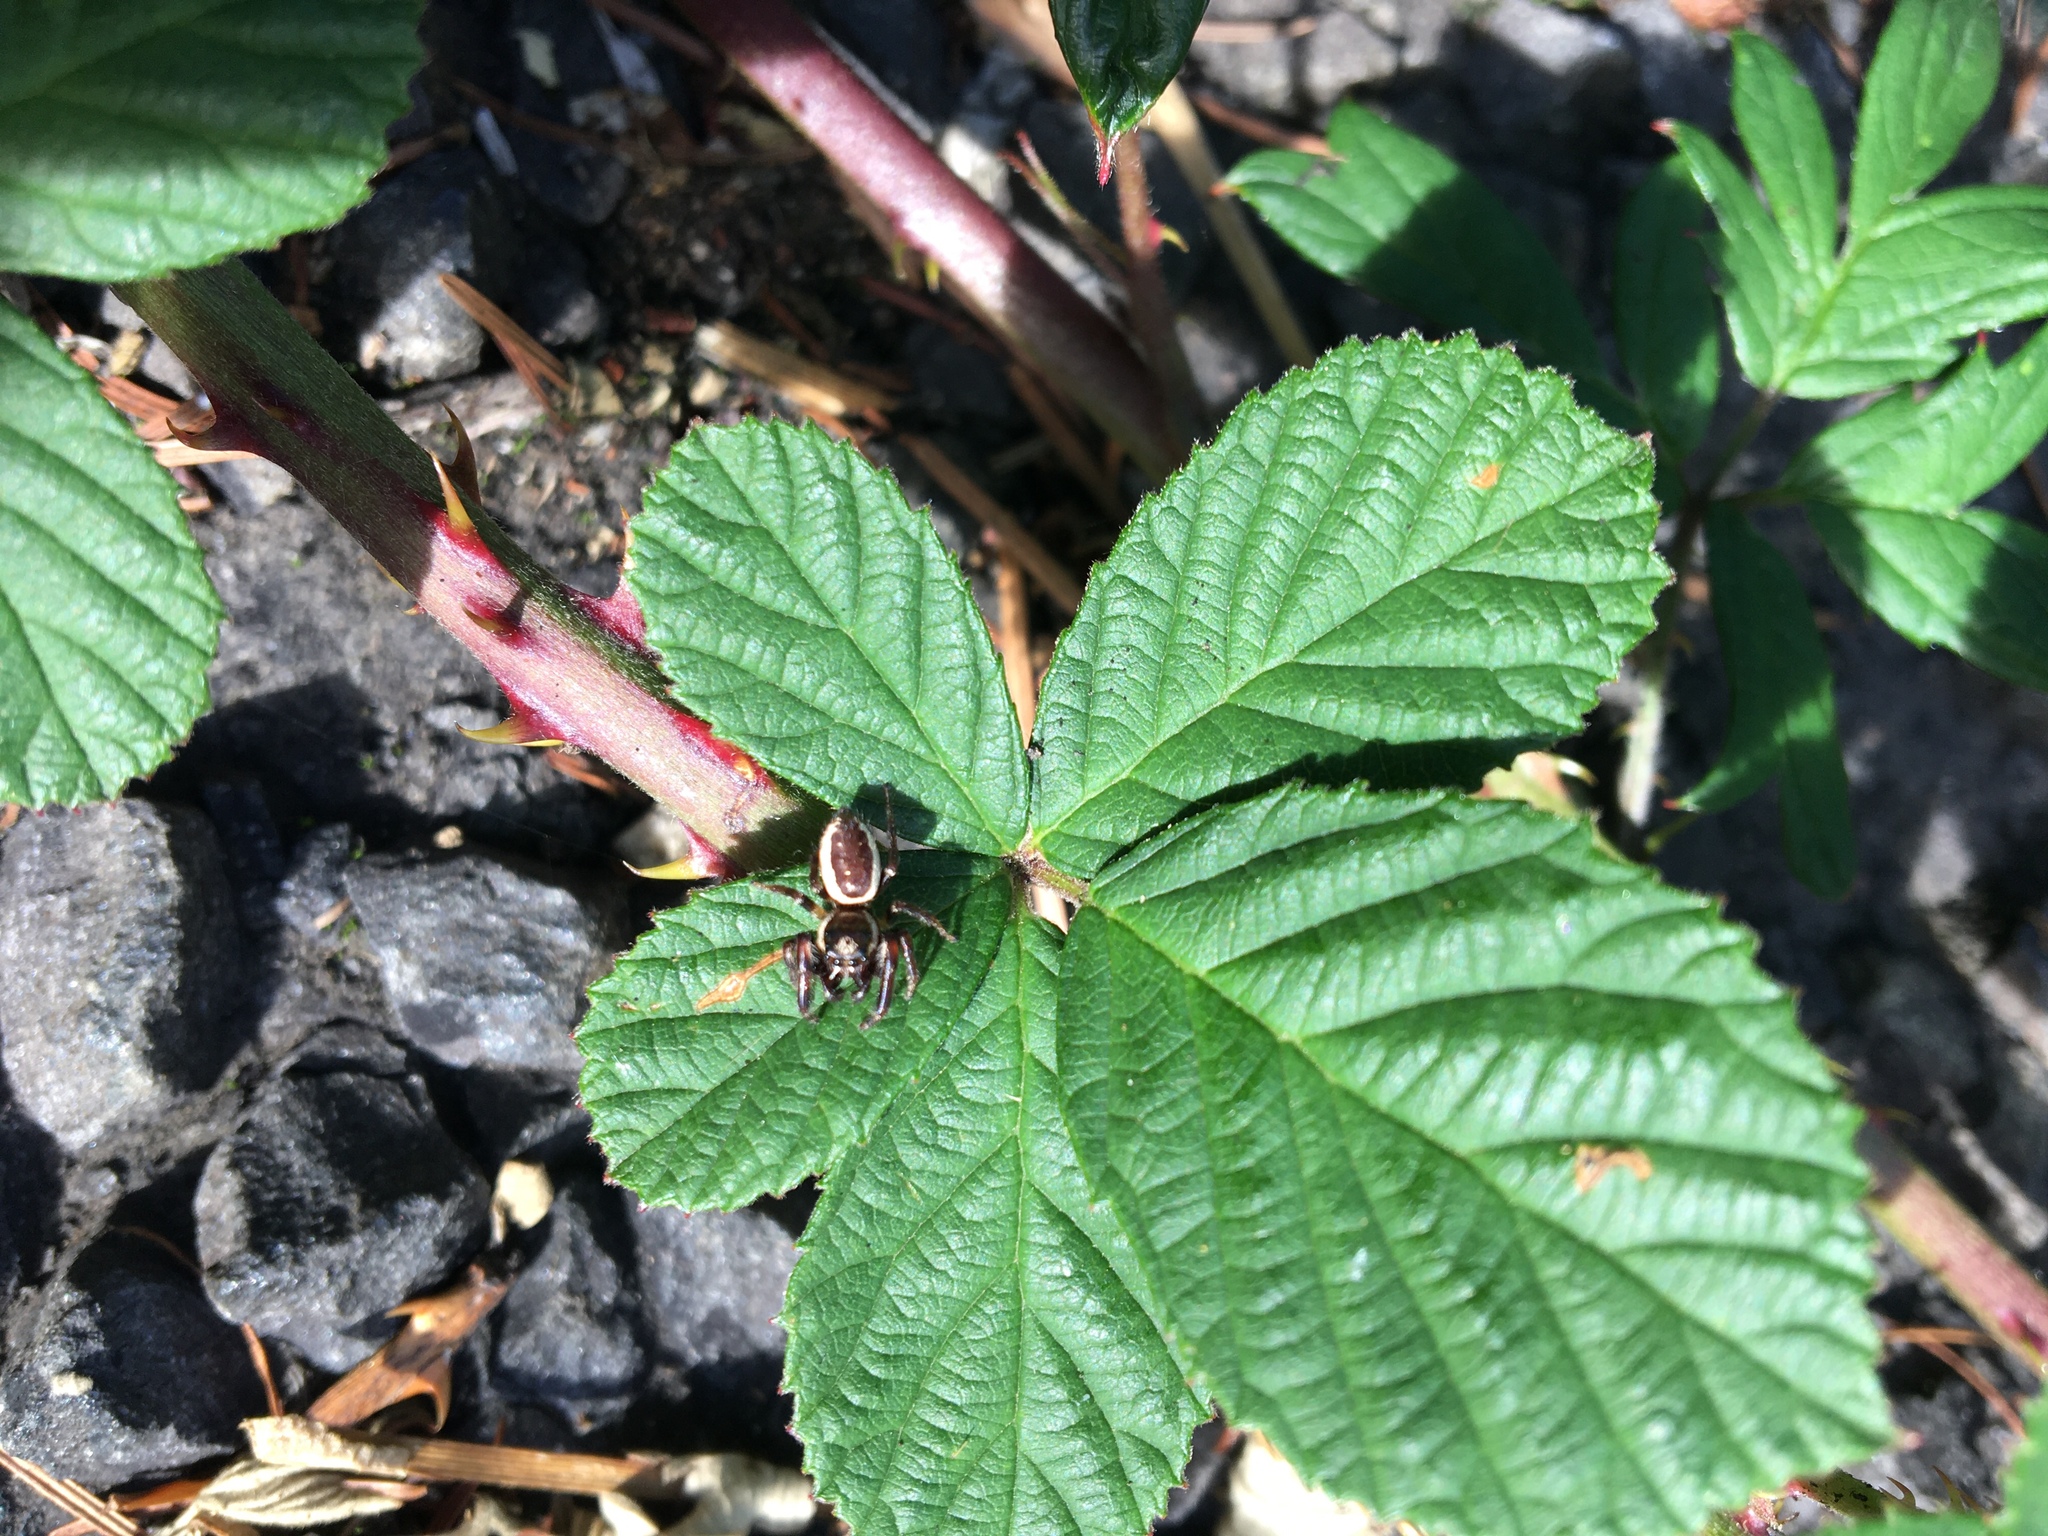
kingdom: Animalia
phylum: Arthropoda
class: Arachnida
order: Araneae
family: Salticidae
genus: Eris
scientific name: Eris militaris
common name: Bronze jumper
